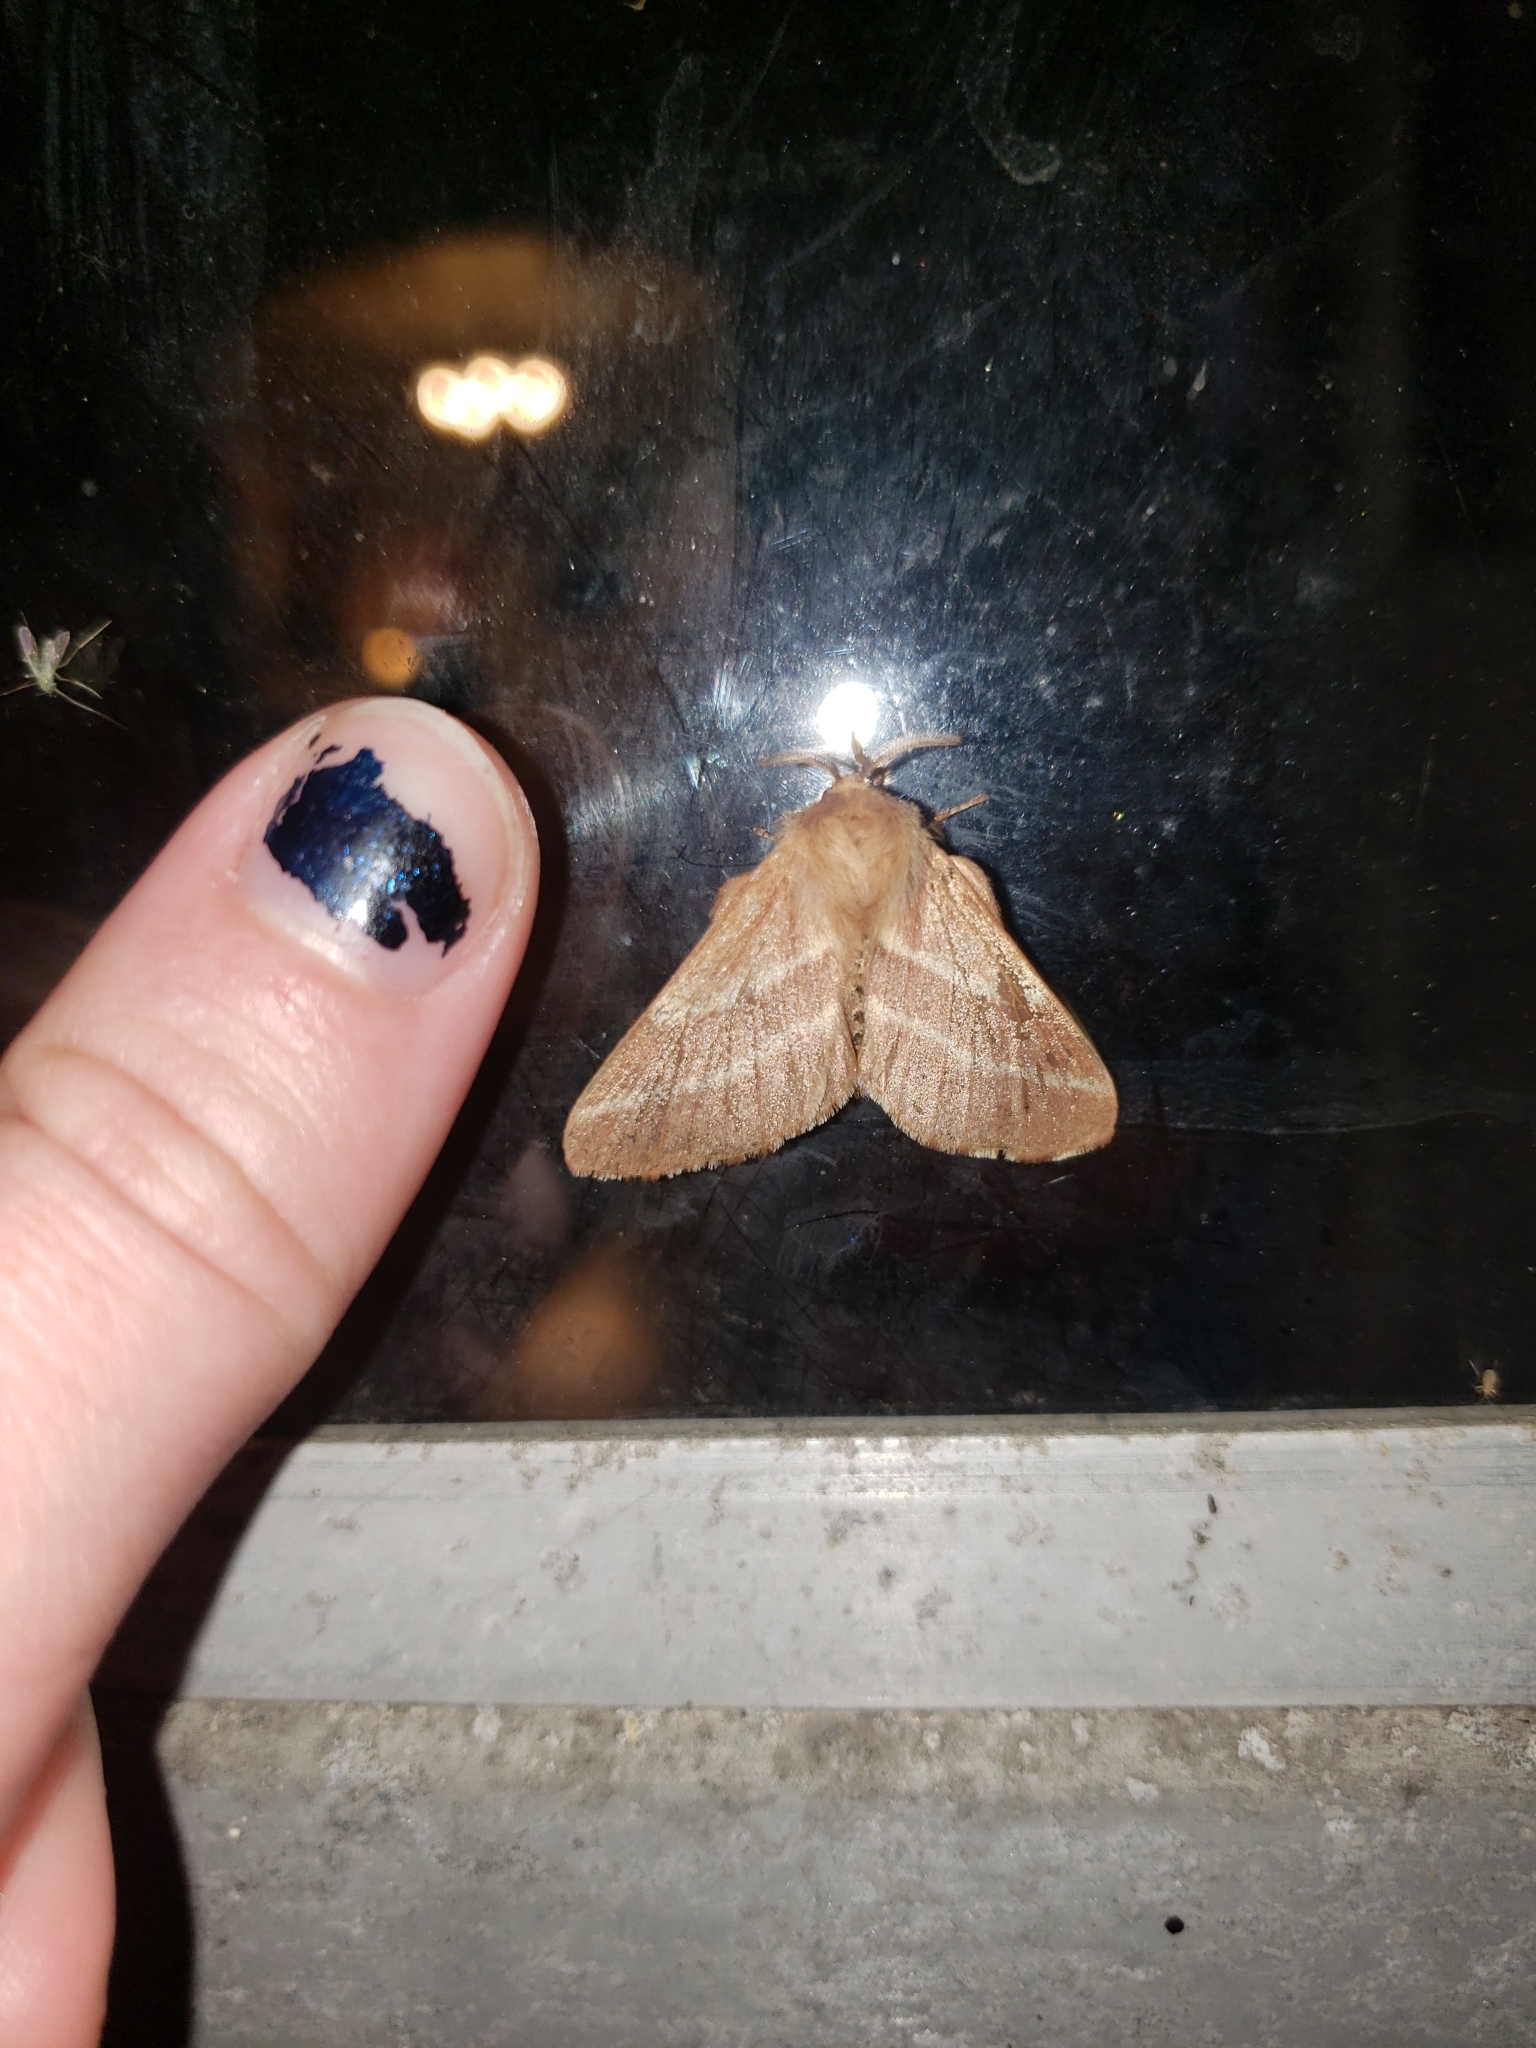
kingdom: Animalia
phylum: Arthropoda
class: Insecta
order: Lepidoptera
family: Lasiocampidae
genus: Malacosoma
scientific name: Malacosoma americana
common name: Eastern tent caterpillar moth
